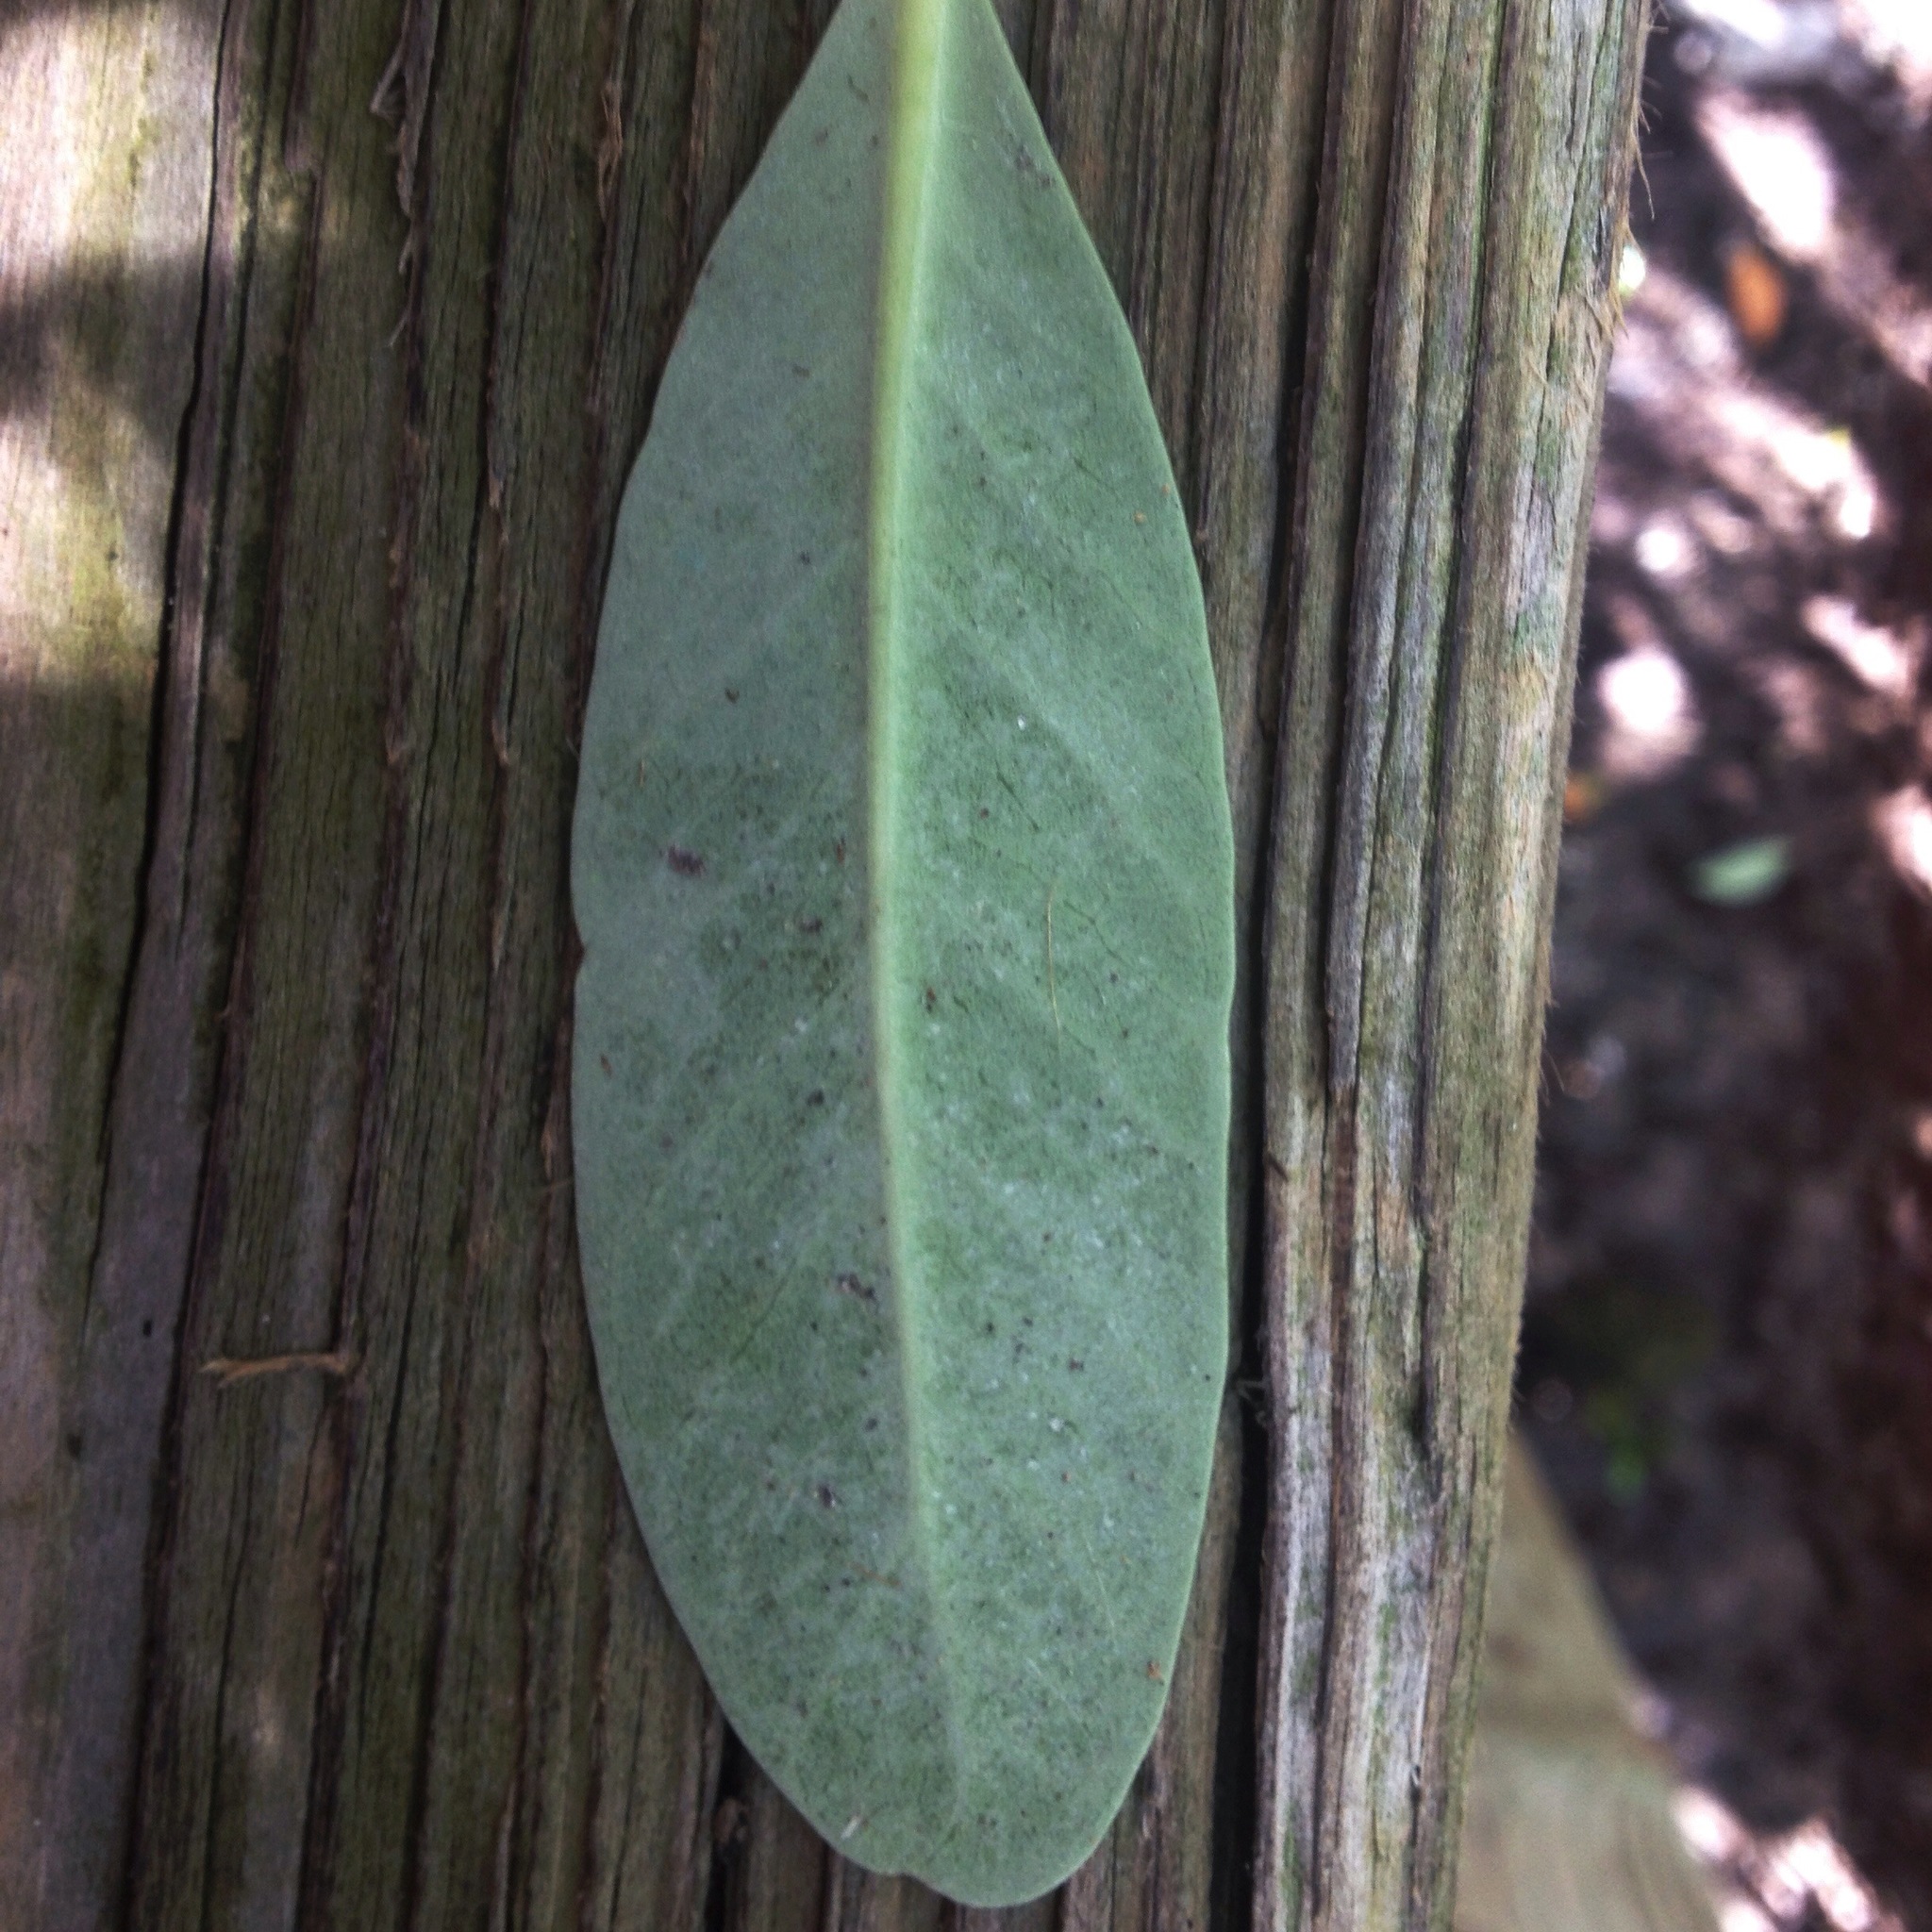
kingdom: Plantae
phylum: Tracheophyta
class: Magnoliopsida
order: Lamiales
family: Acanthaceae
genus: Avicennia
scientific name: Avicennia germinans
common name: Black mangrove
